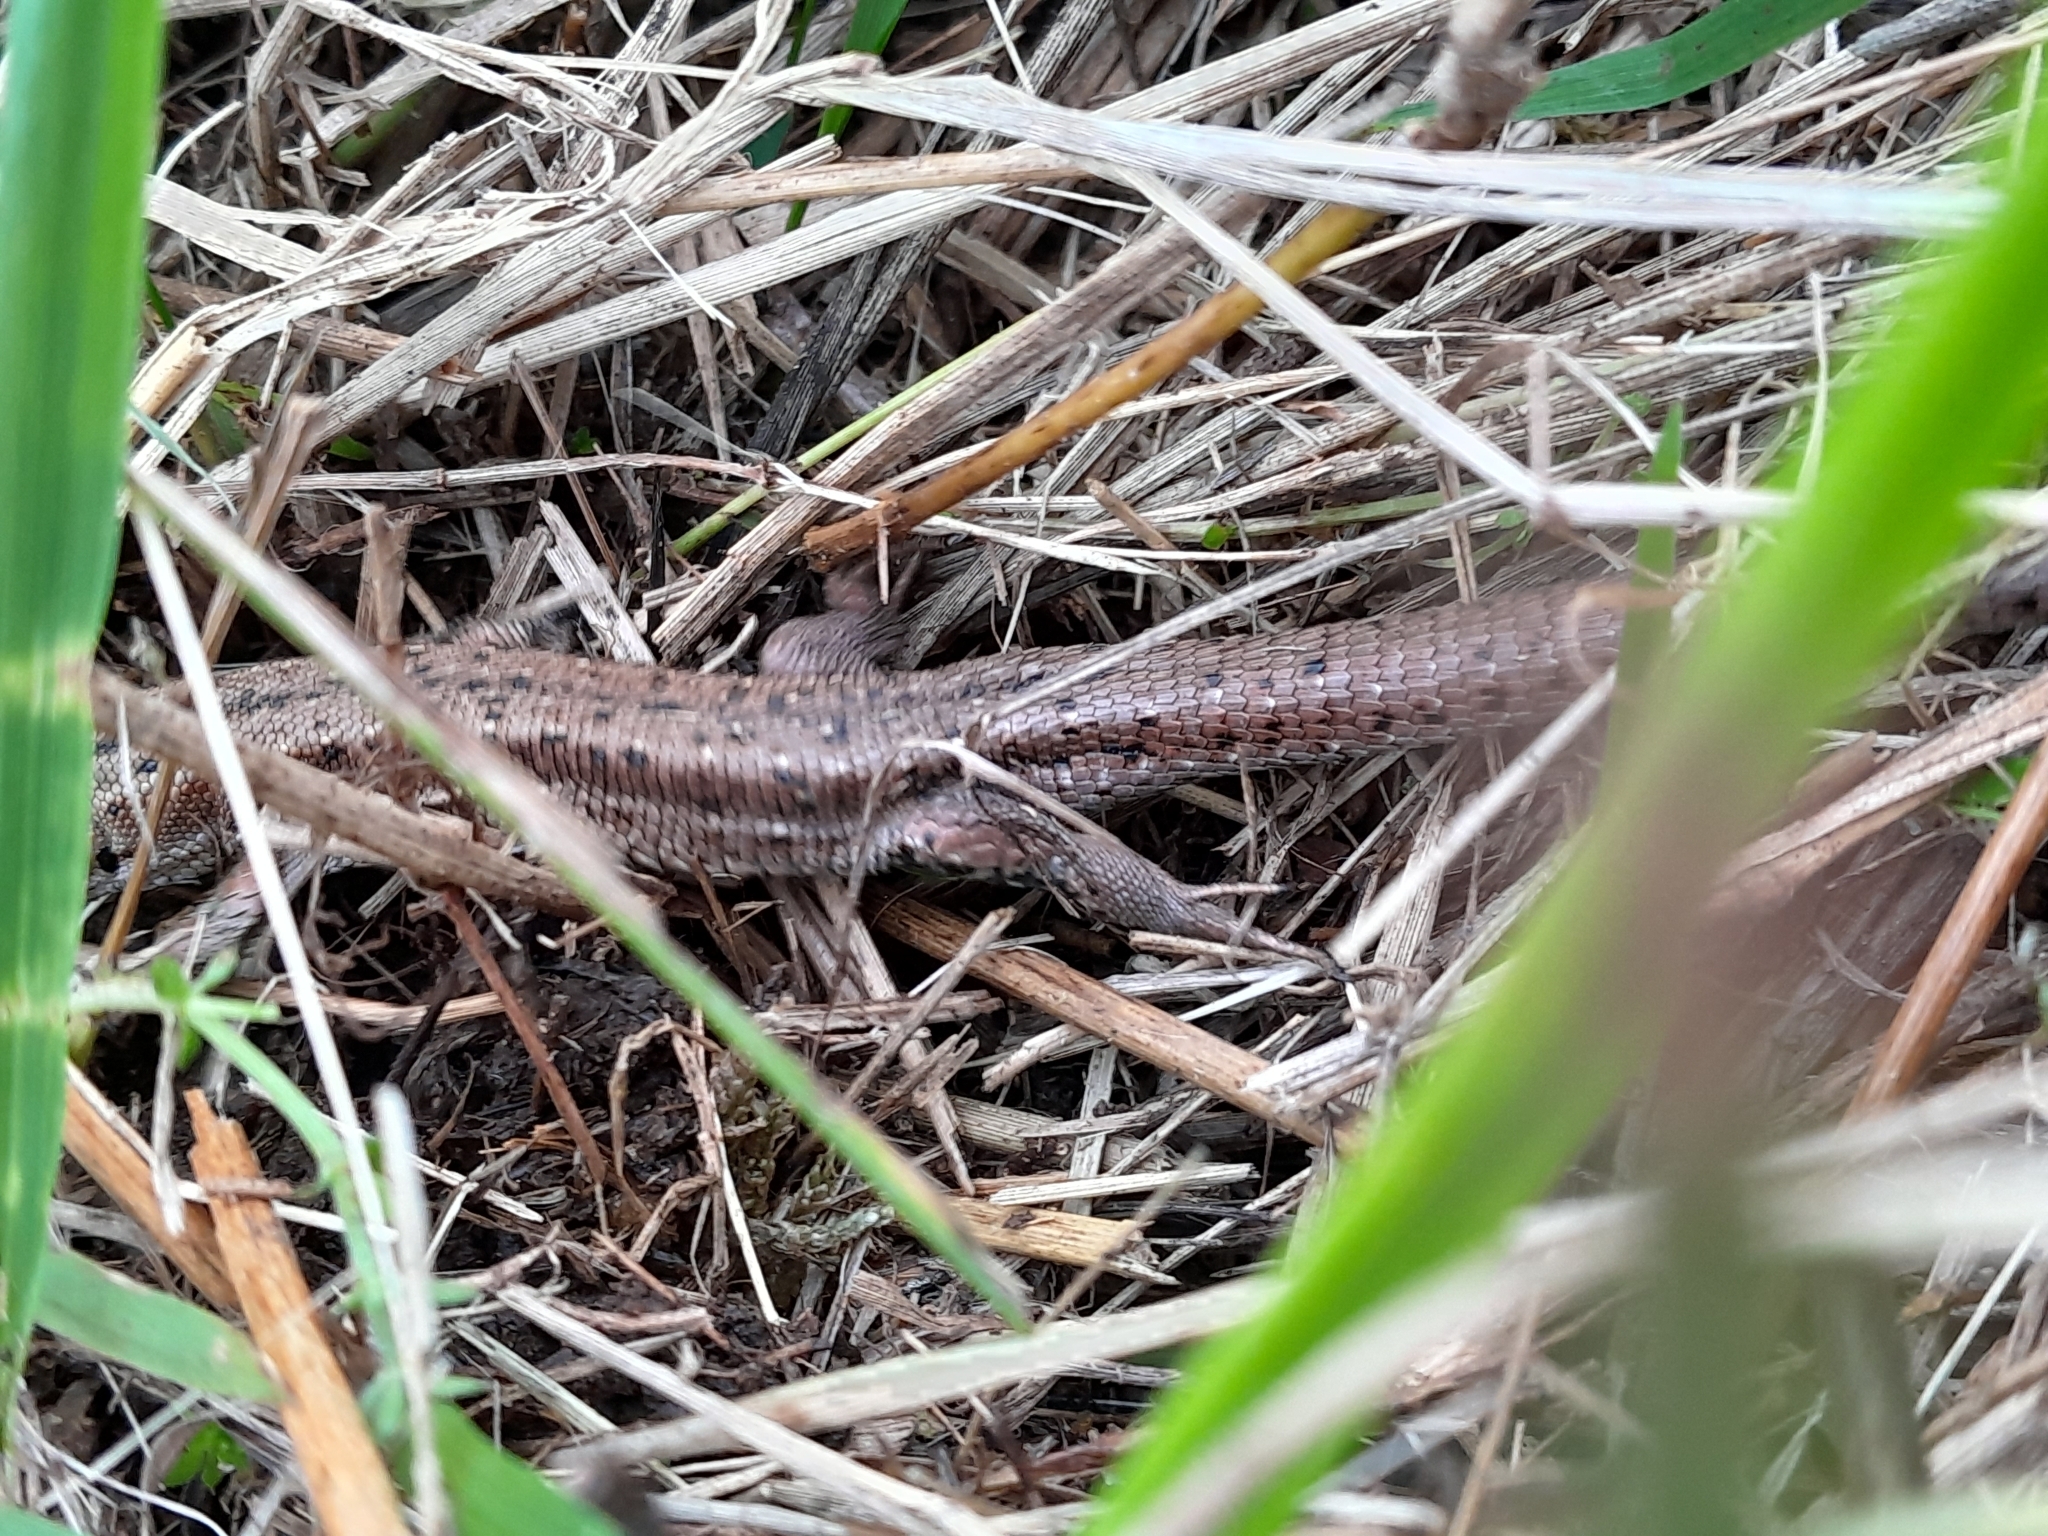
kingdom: Animalia
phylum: Chordata
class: Squamata
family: Lacertidae
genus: Zootoca
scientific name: Zootoca vivipara
